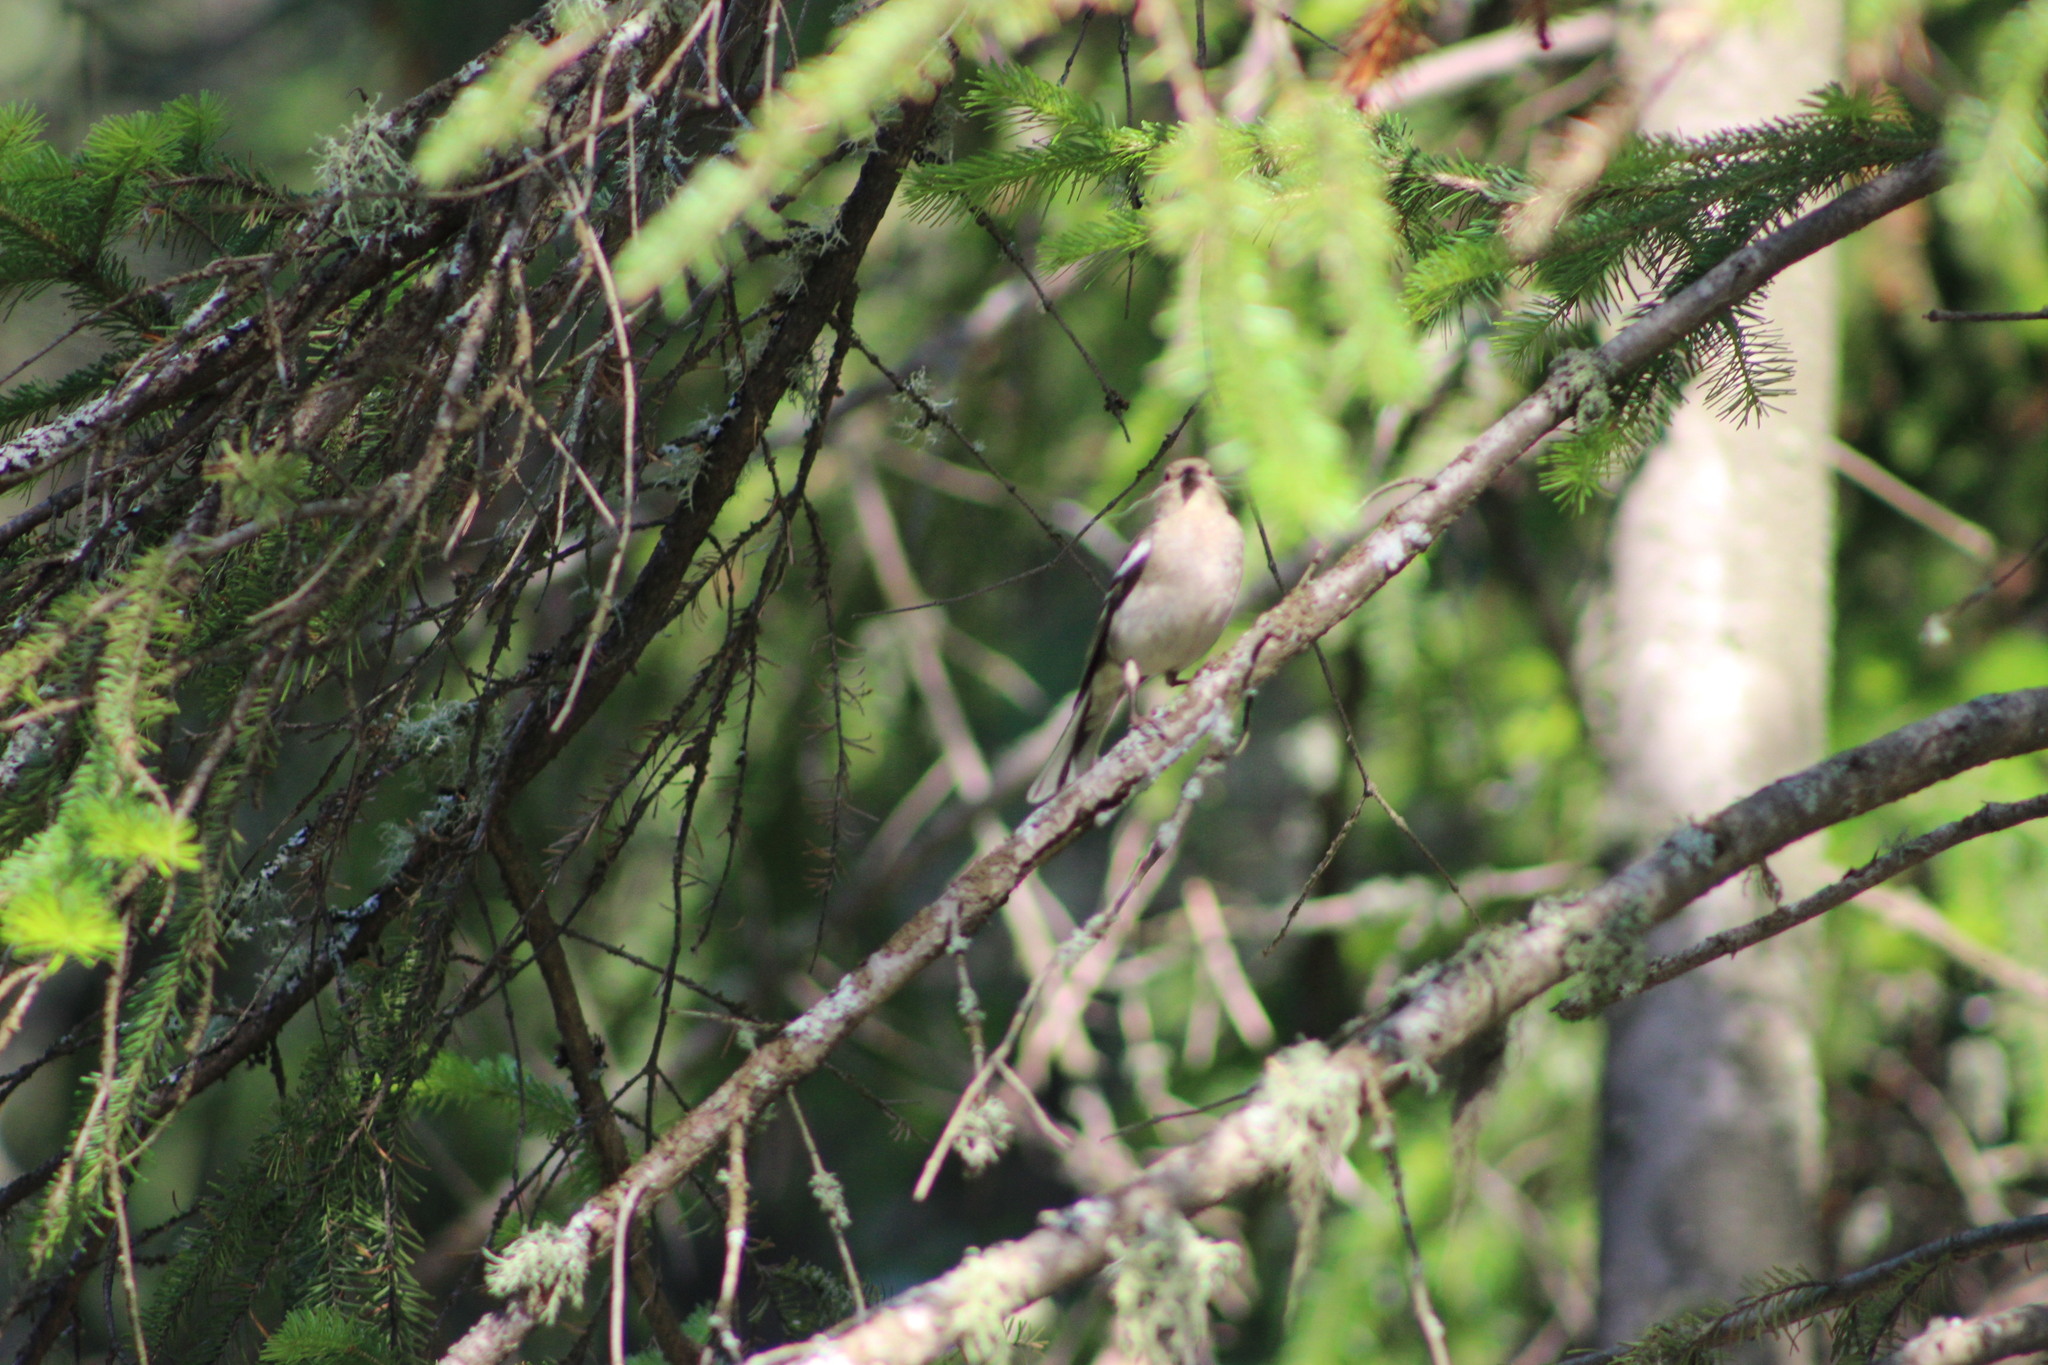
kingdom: Animalia
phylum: Chordata
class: Aves
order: Passeriformes
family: Fringillidae
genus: Fringilla
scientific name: Fringilla coelebs
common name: Common chaffinch
